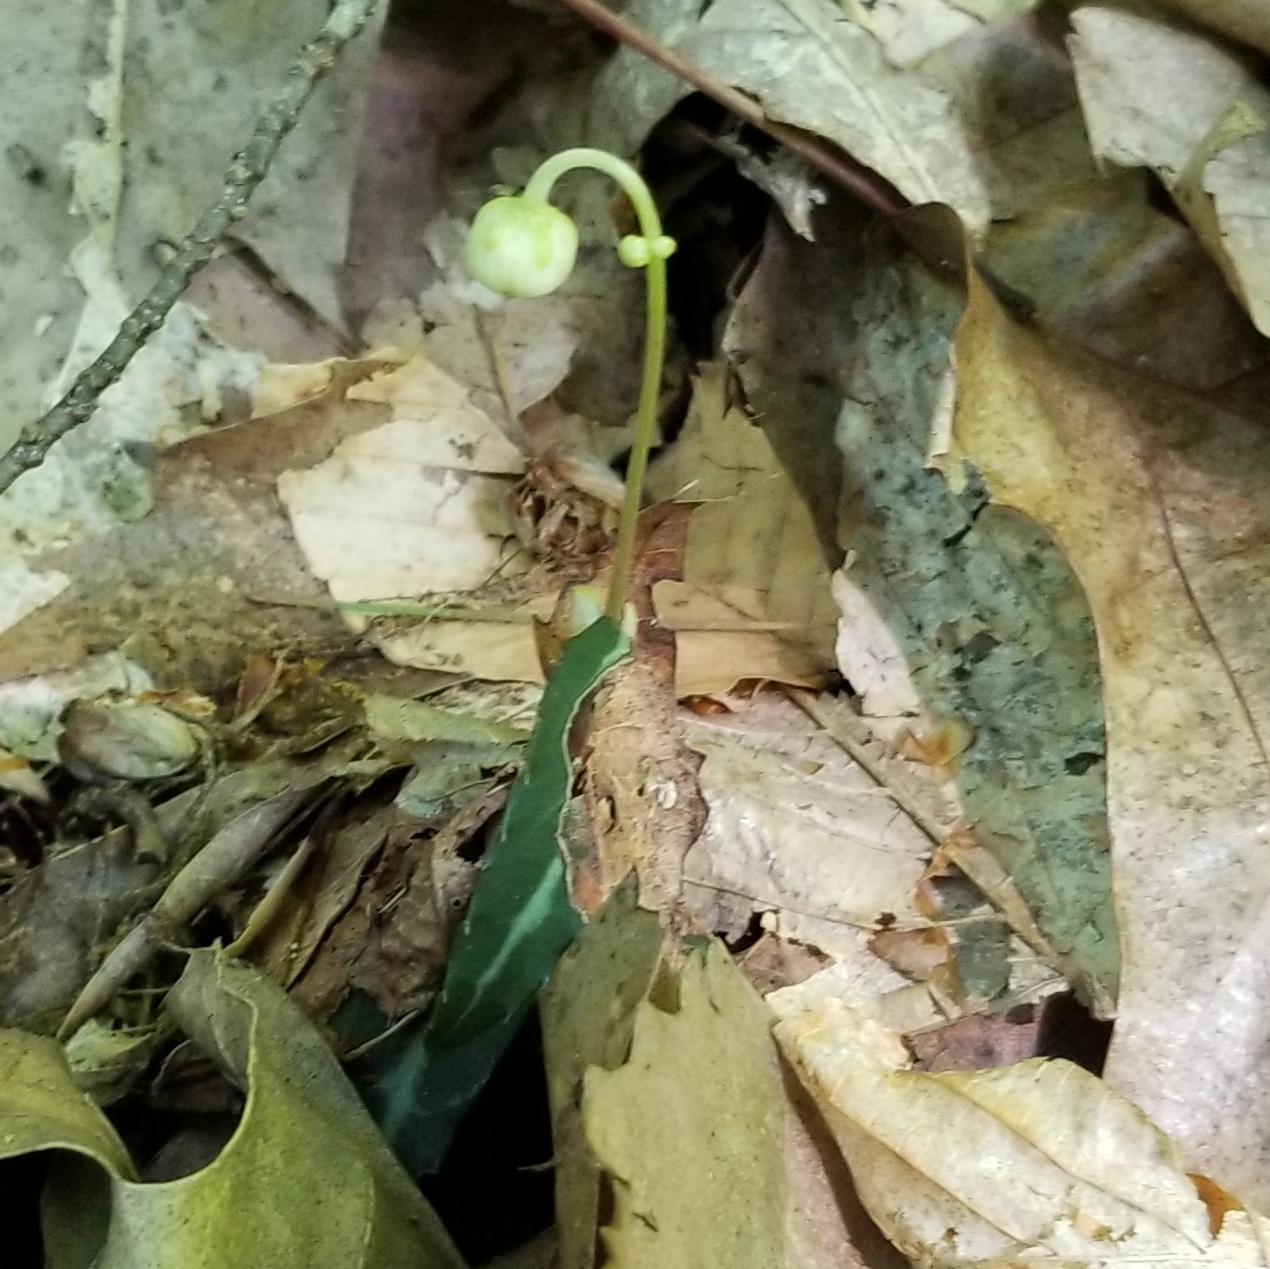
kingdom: Plantae
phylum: Tracheophyta
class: Magnoliopsida
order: Ericales
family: Ericaceae
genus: Chimaphila
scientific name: Chimaphila maculata
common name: Spotted pipsissewa
